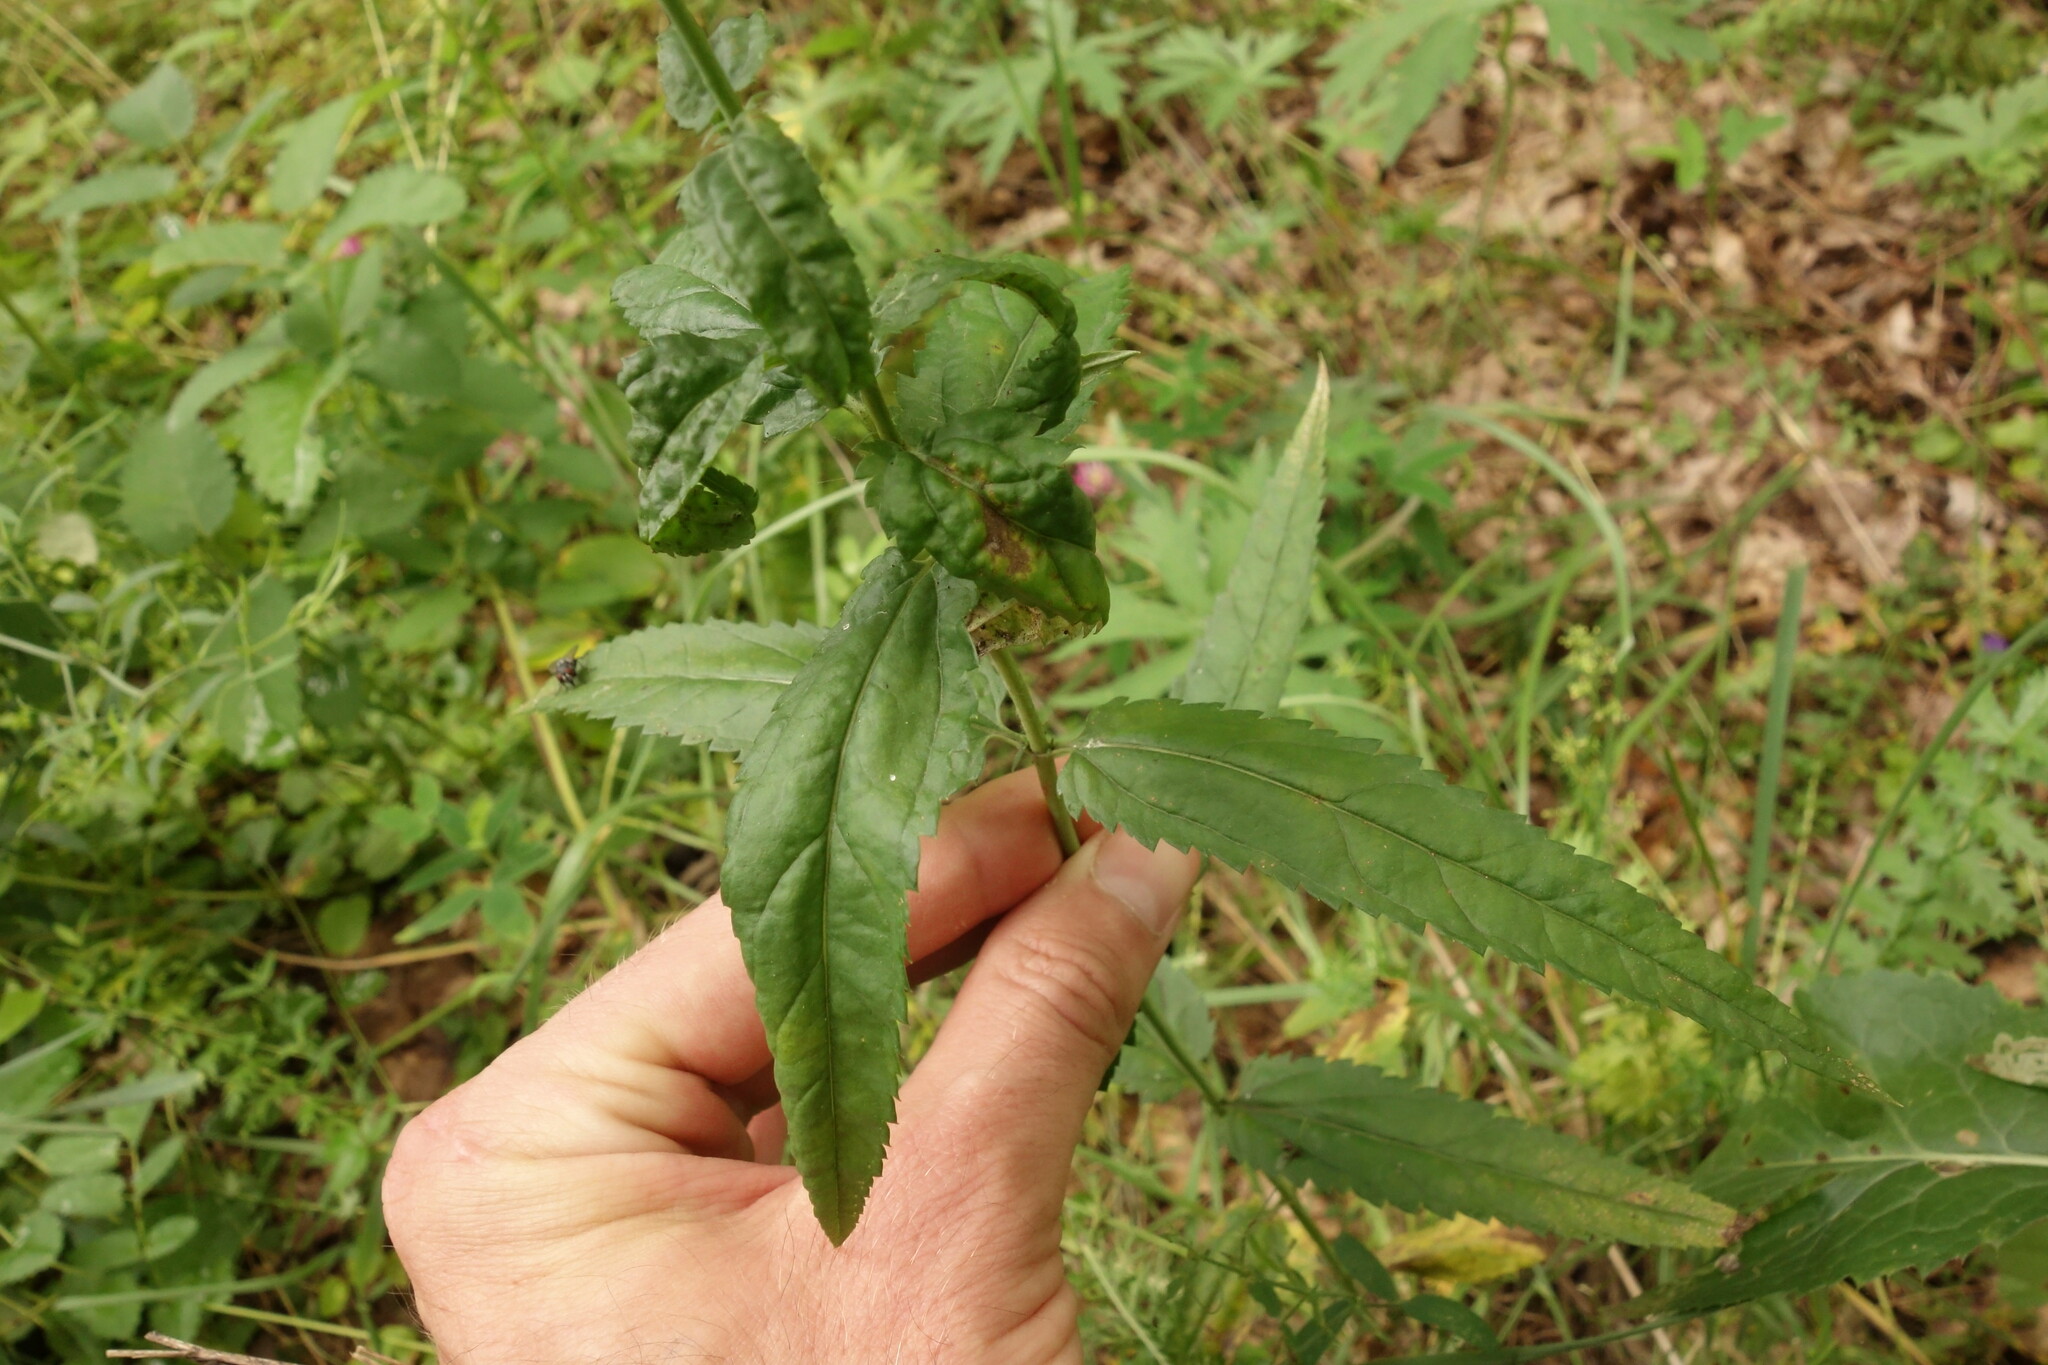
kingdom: Plantae
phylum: Tracheophyta
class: Magnoliopsida
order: Lamiales
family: Plantaginaceae
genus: Veronica
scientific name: Veronica longifolia
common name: Garden speedwell
